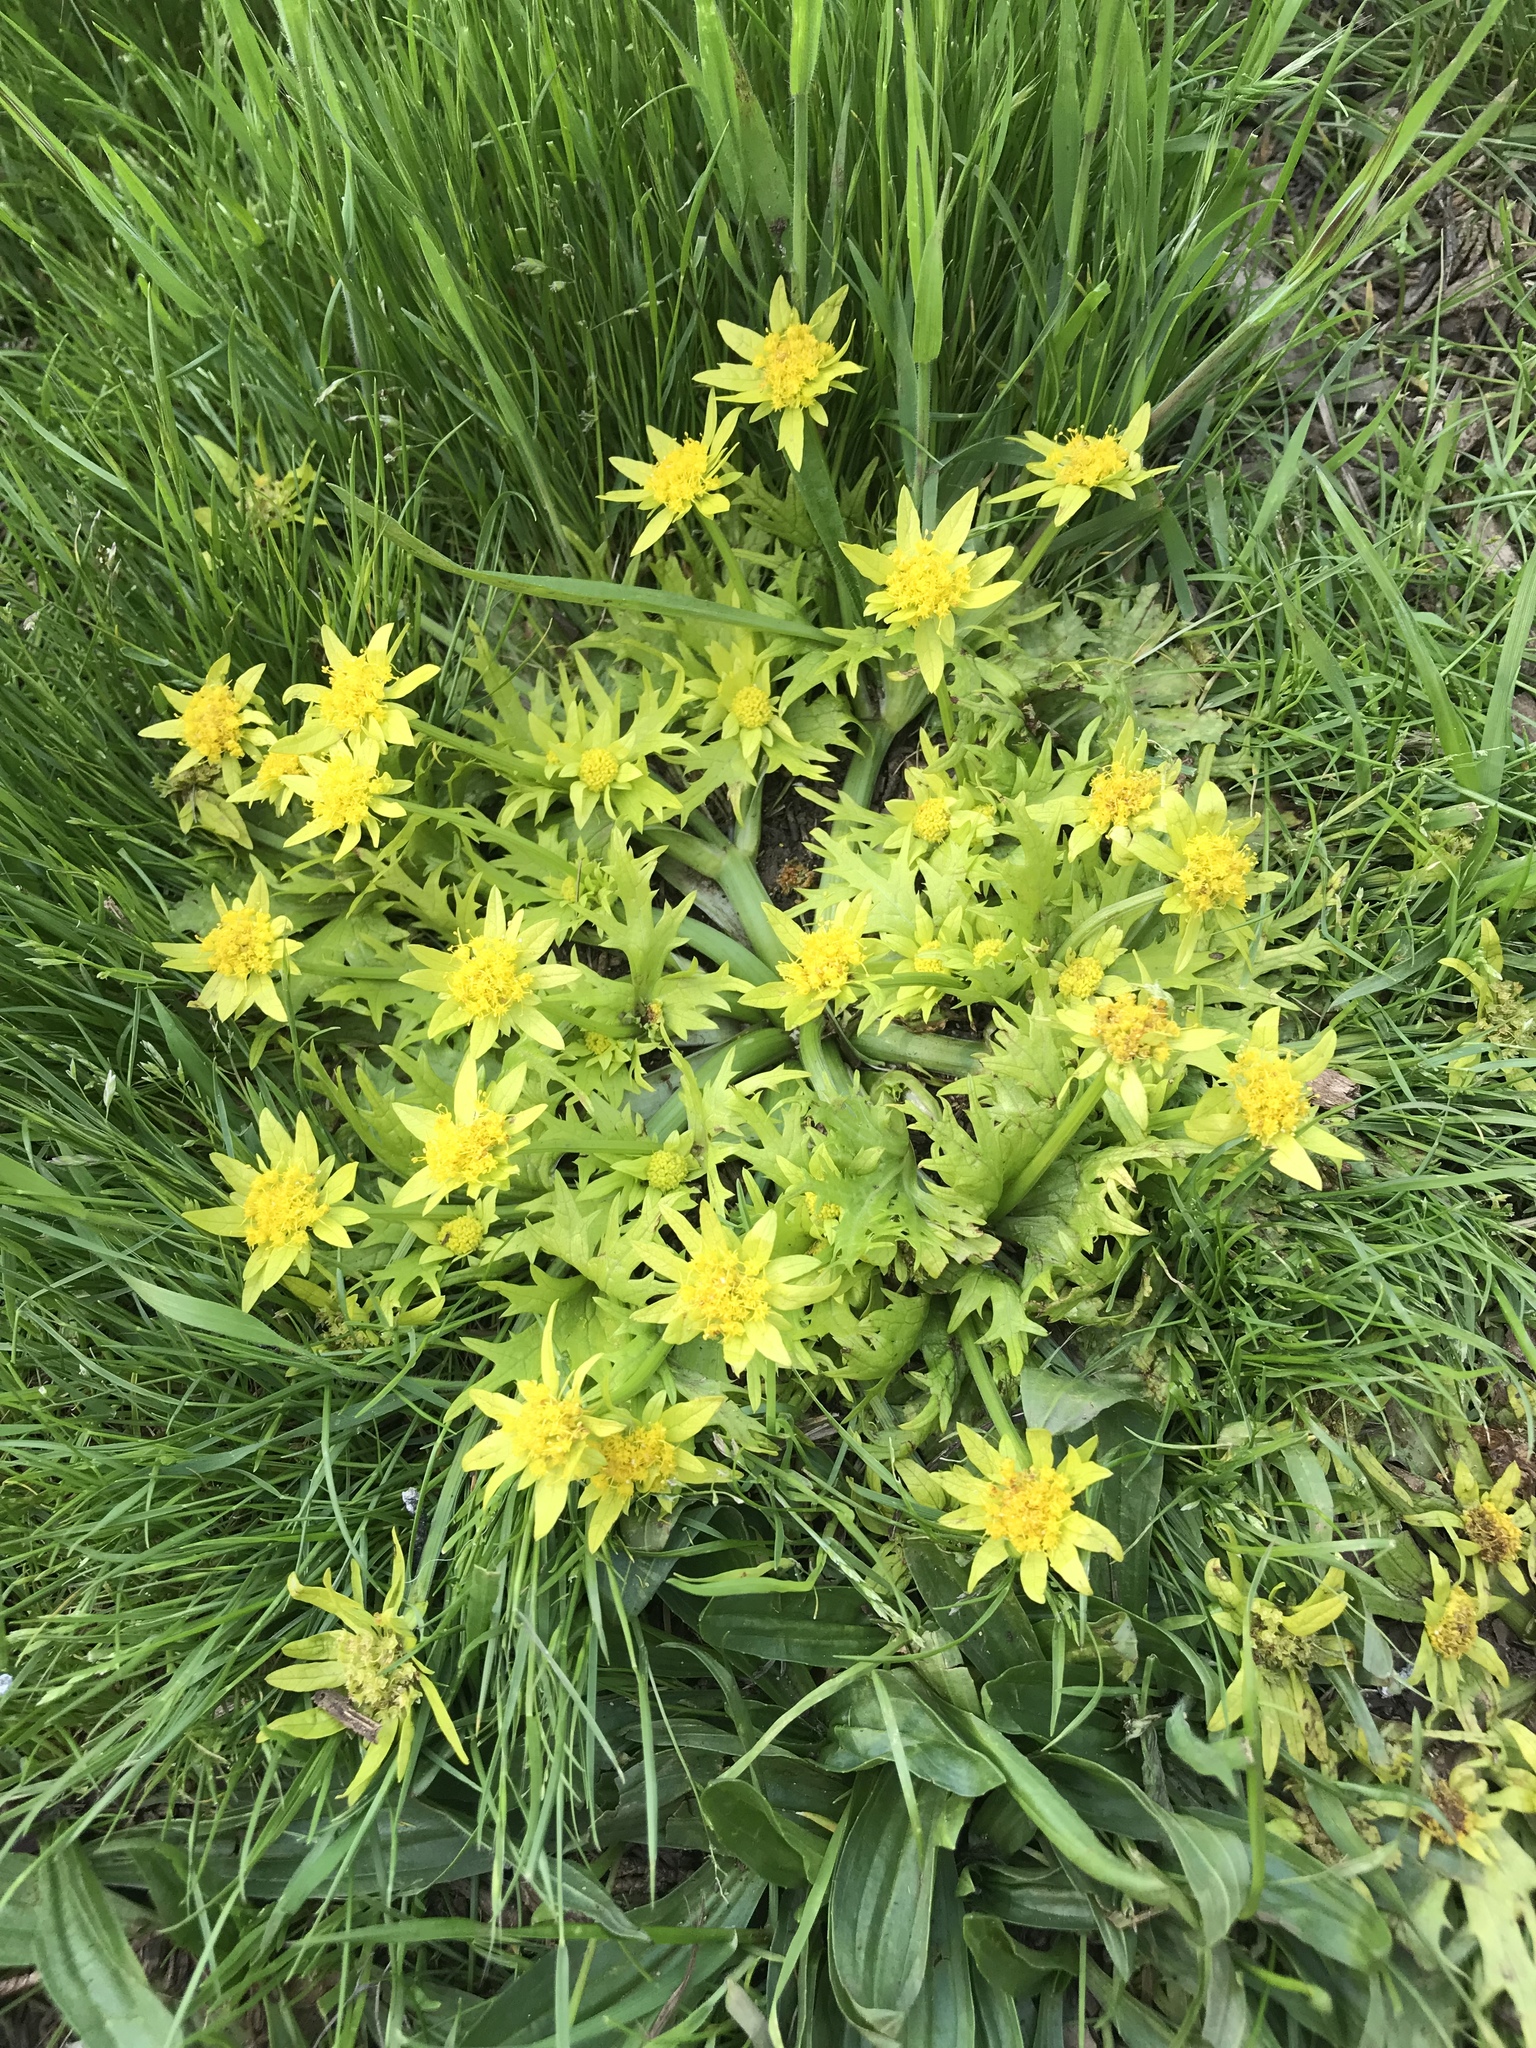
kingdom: Plantae
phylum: Tracheophyta
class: Magnoliopsida
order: Apiales
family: Apiaceae
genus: Sanicula
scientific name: Sanicula arctopoides
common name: Footsteps-of-spring
